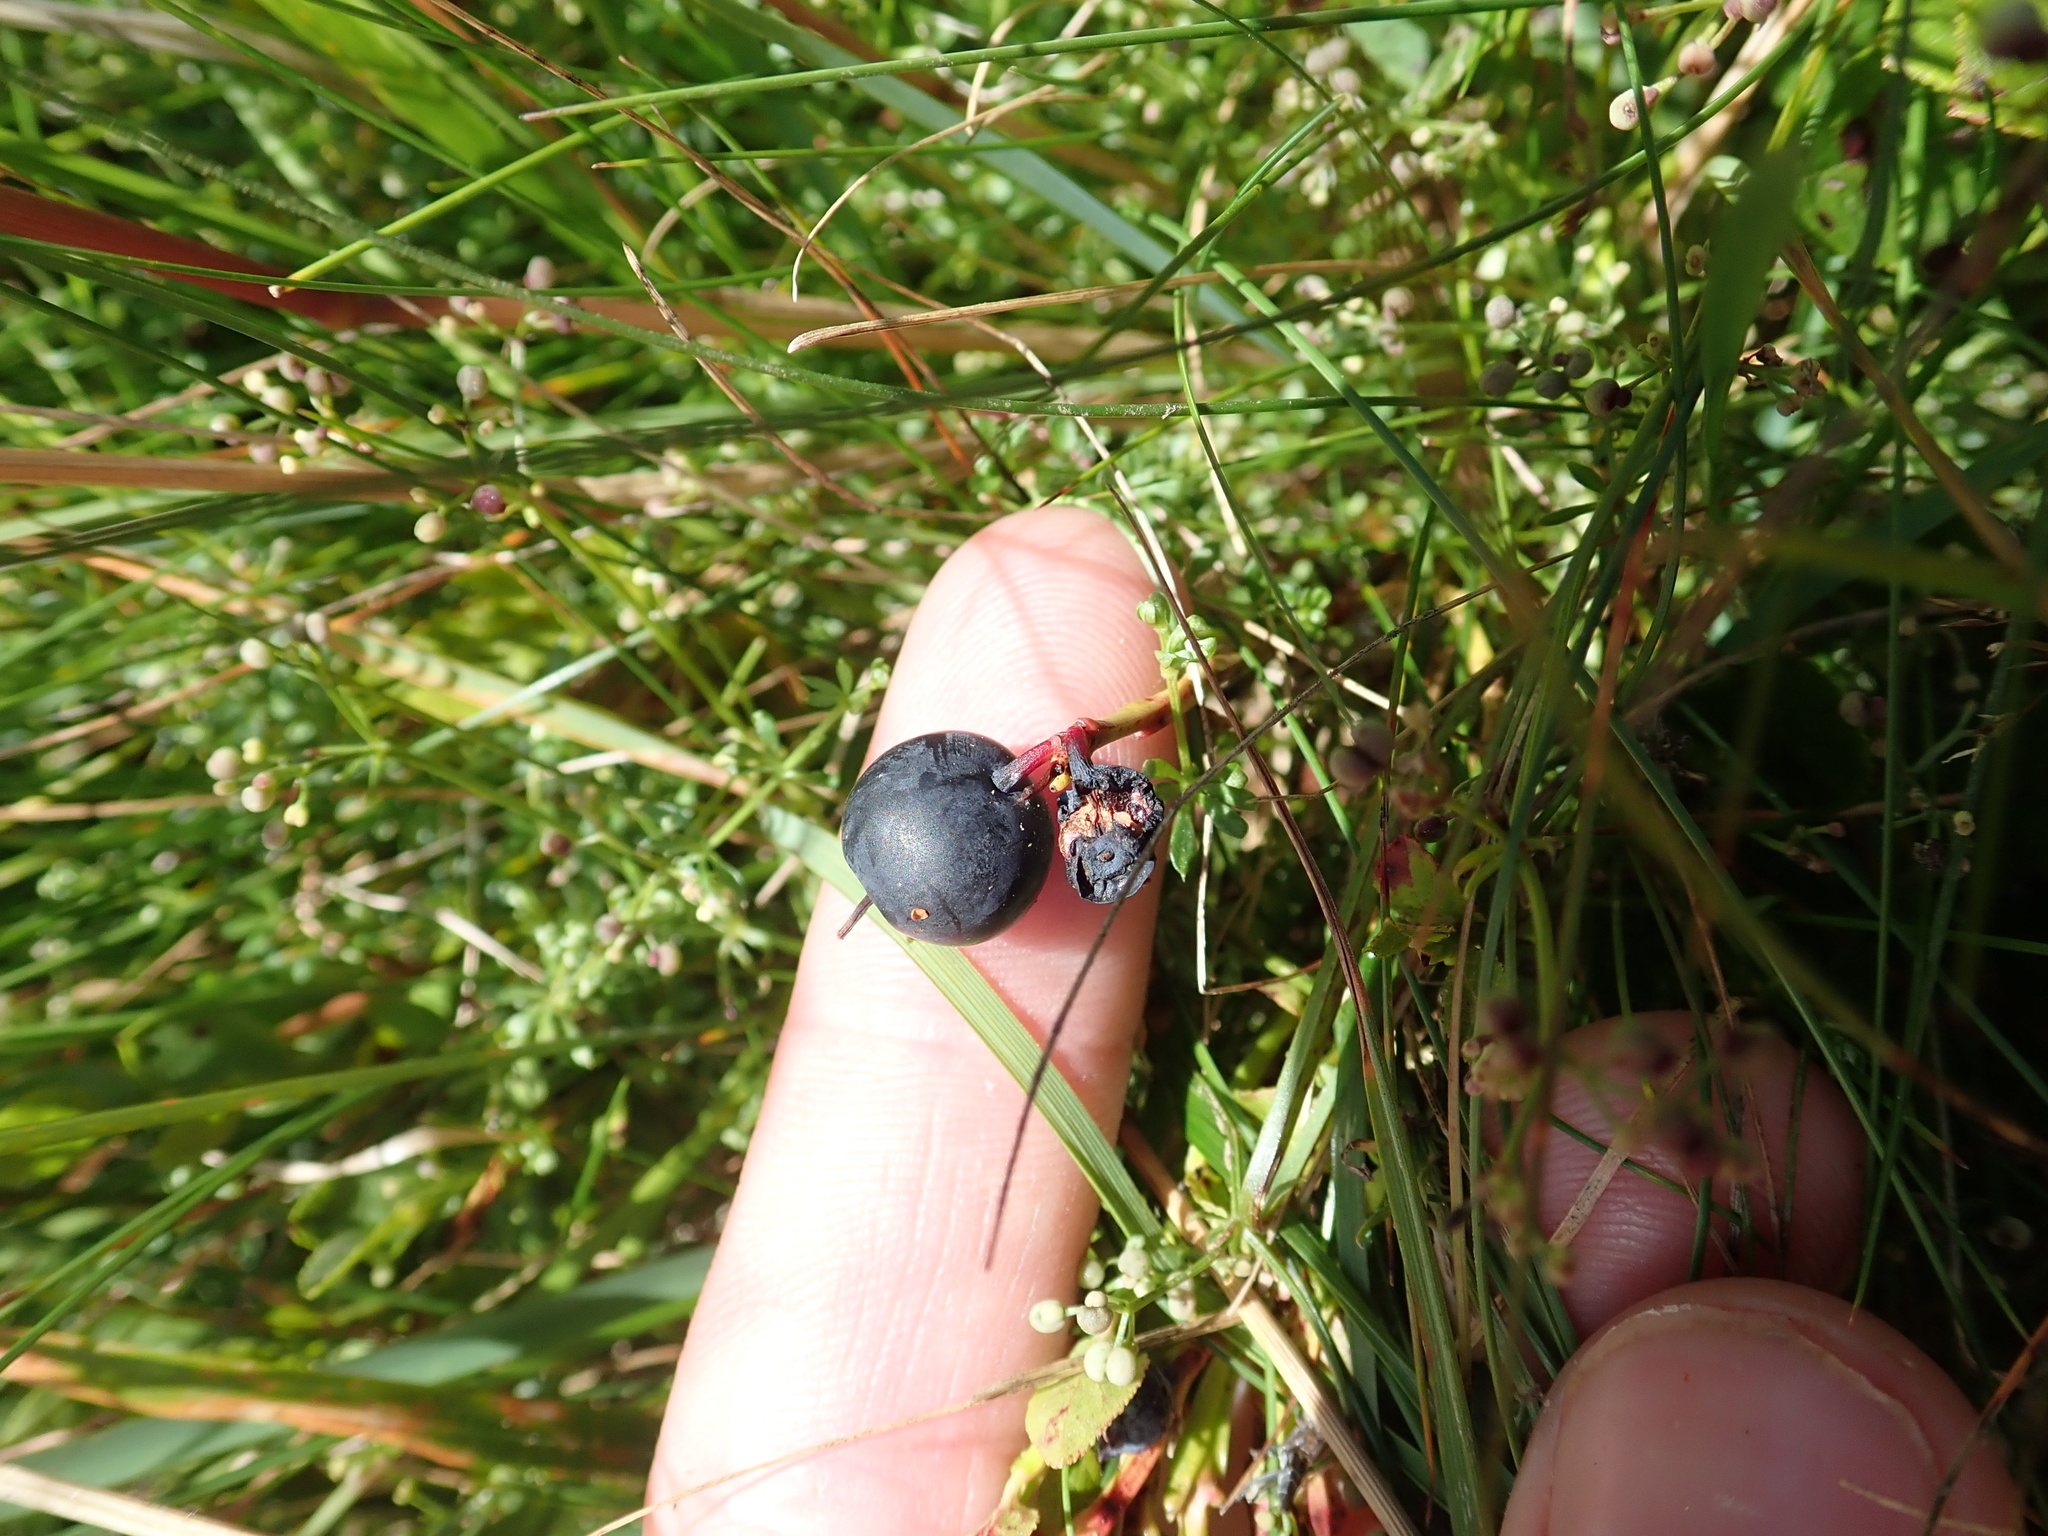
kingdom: Plantae
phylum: Tracheophyta
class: Magnoliopsida
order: Ericales
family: Ericaceae
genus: Vaccinium
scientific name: Vaccinium myrtillus
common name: Bilberry
